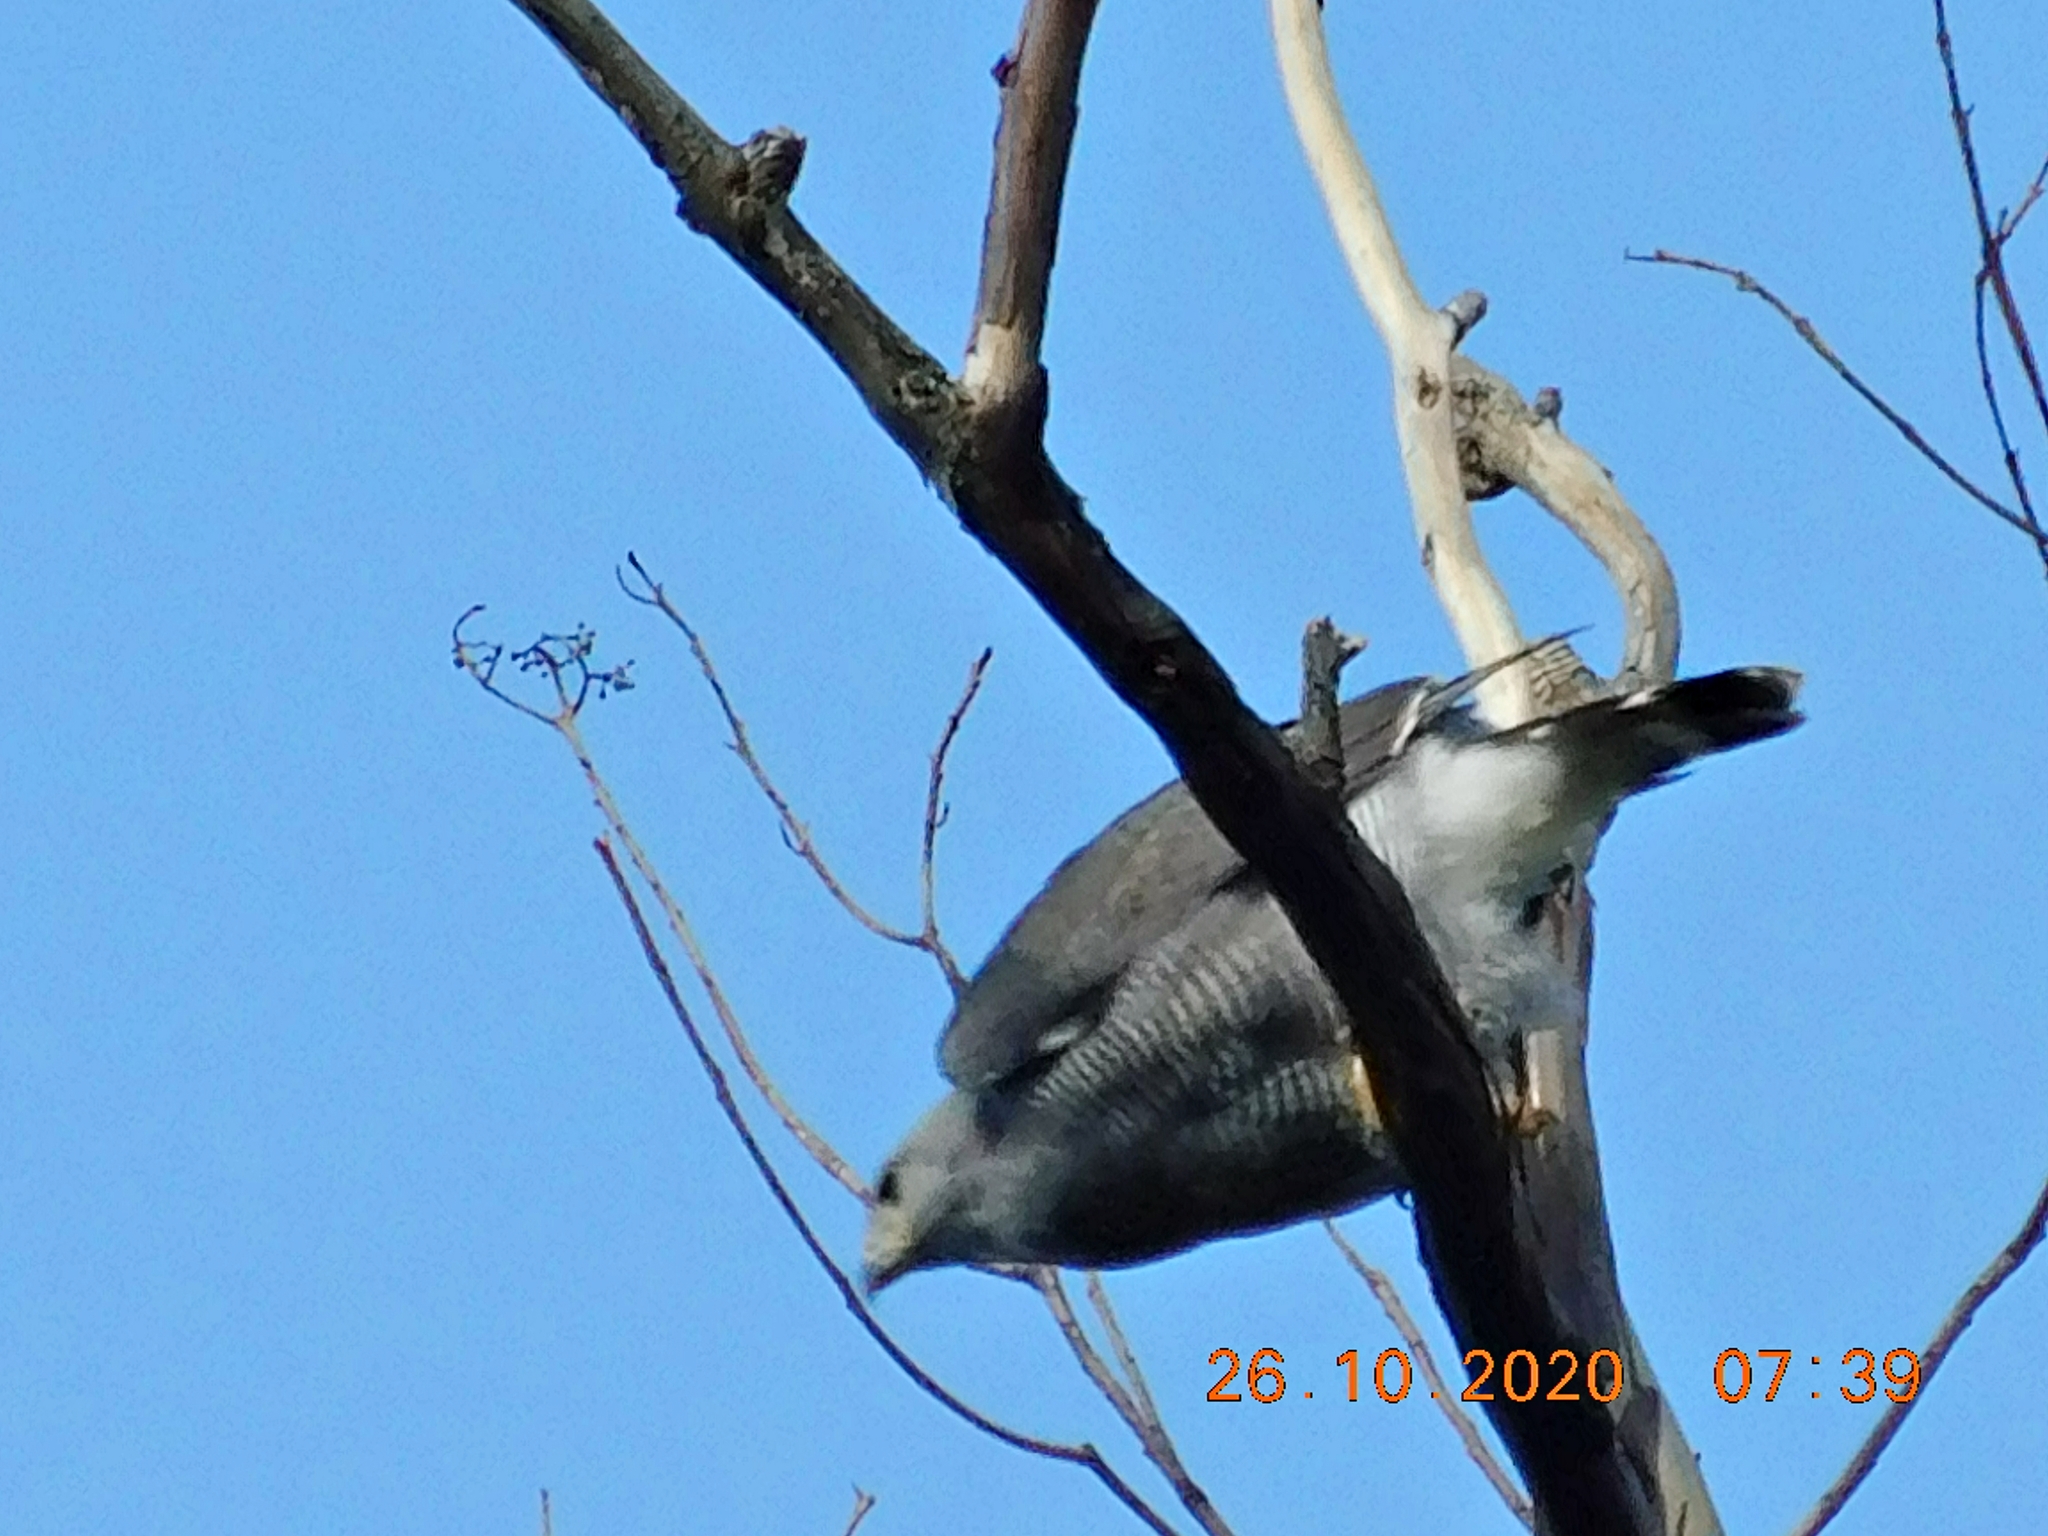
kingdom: Animalia
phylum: Chordata
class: Aves
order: Accipitriformes
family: Accipitridae
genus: Buteo
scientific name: Buteo nitidus
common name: Grey-lined hawk
